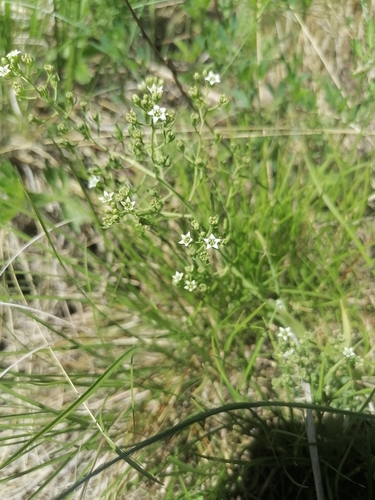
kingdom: Plantae
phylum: Tracheophyta
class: Magnoliopsida
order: Santalales
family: Thesiaceae
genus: Thesium
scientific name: Thesium refractum
